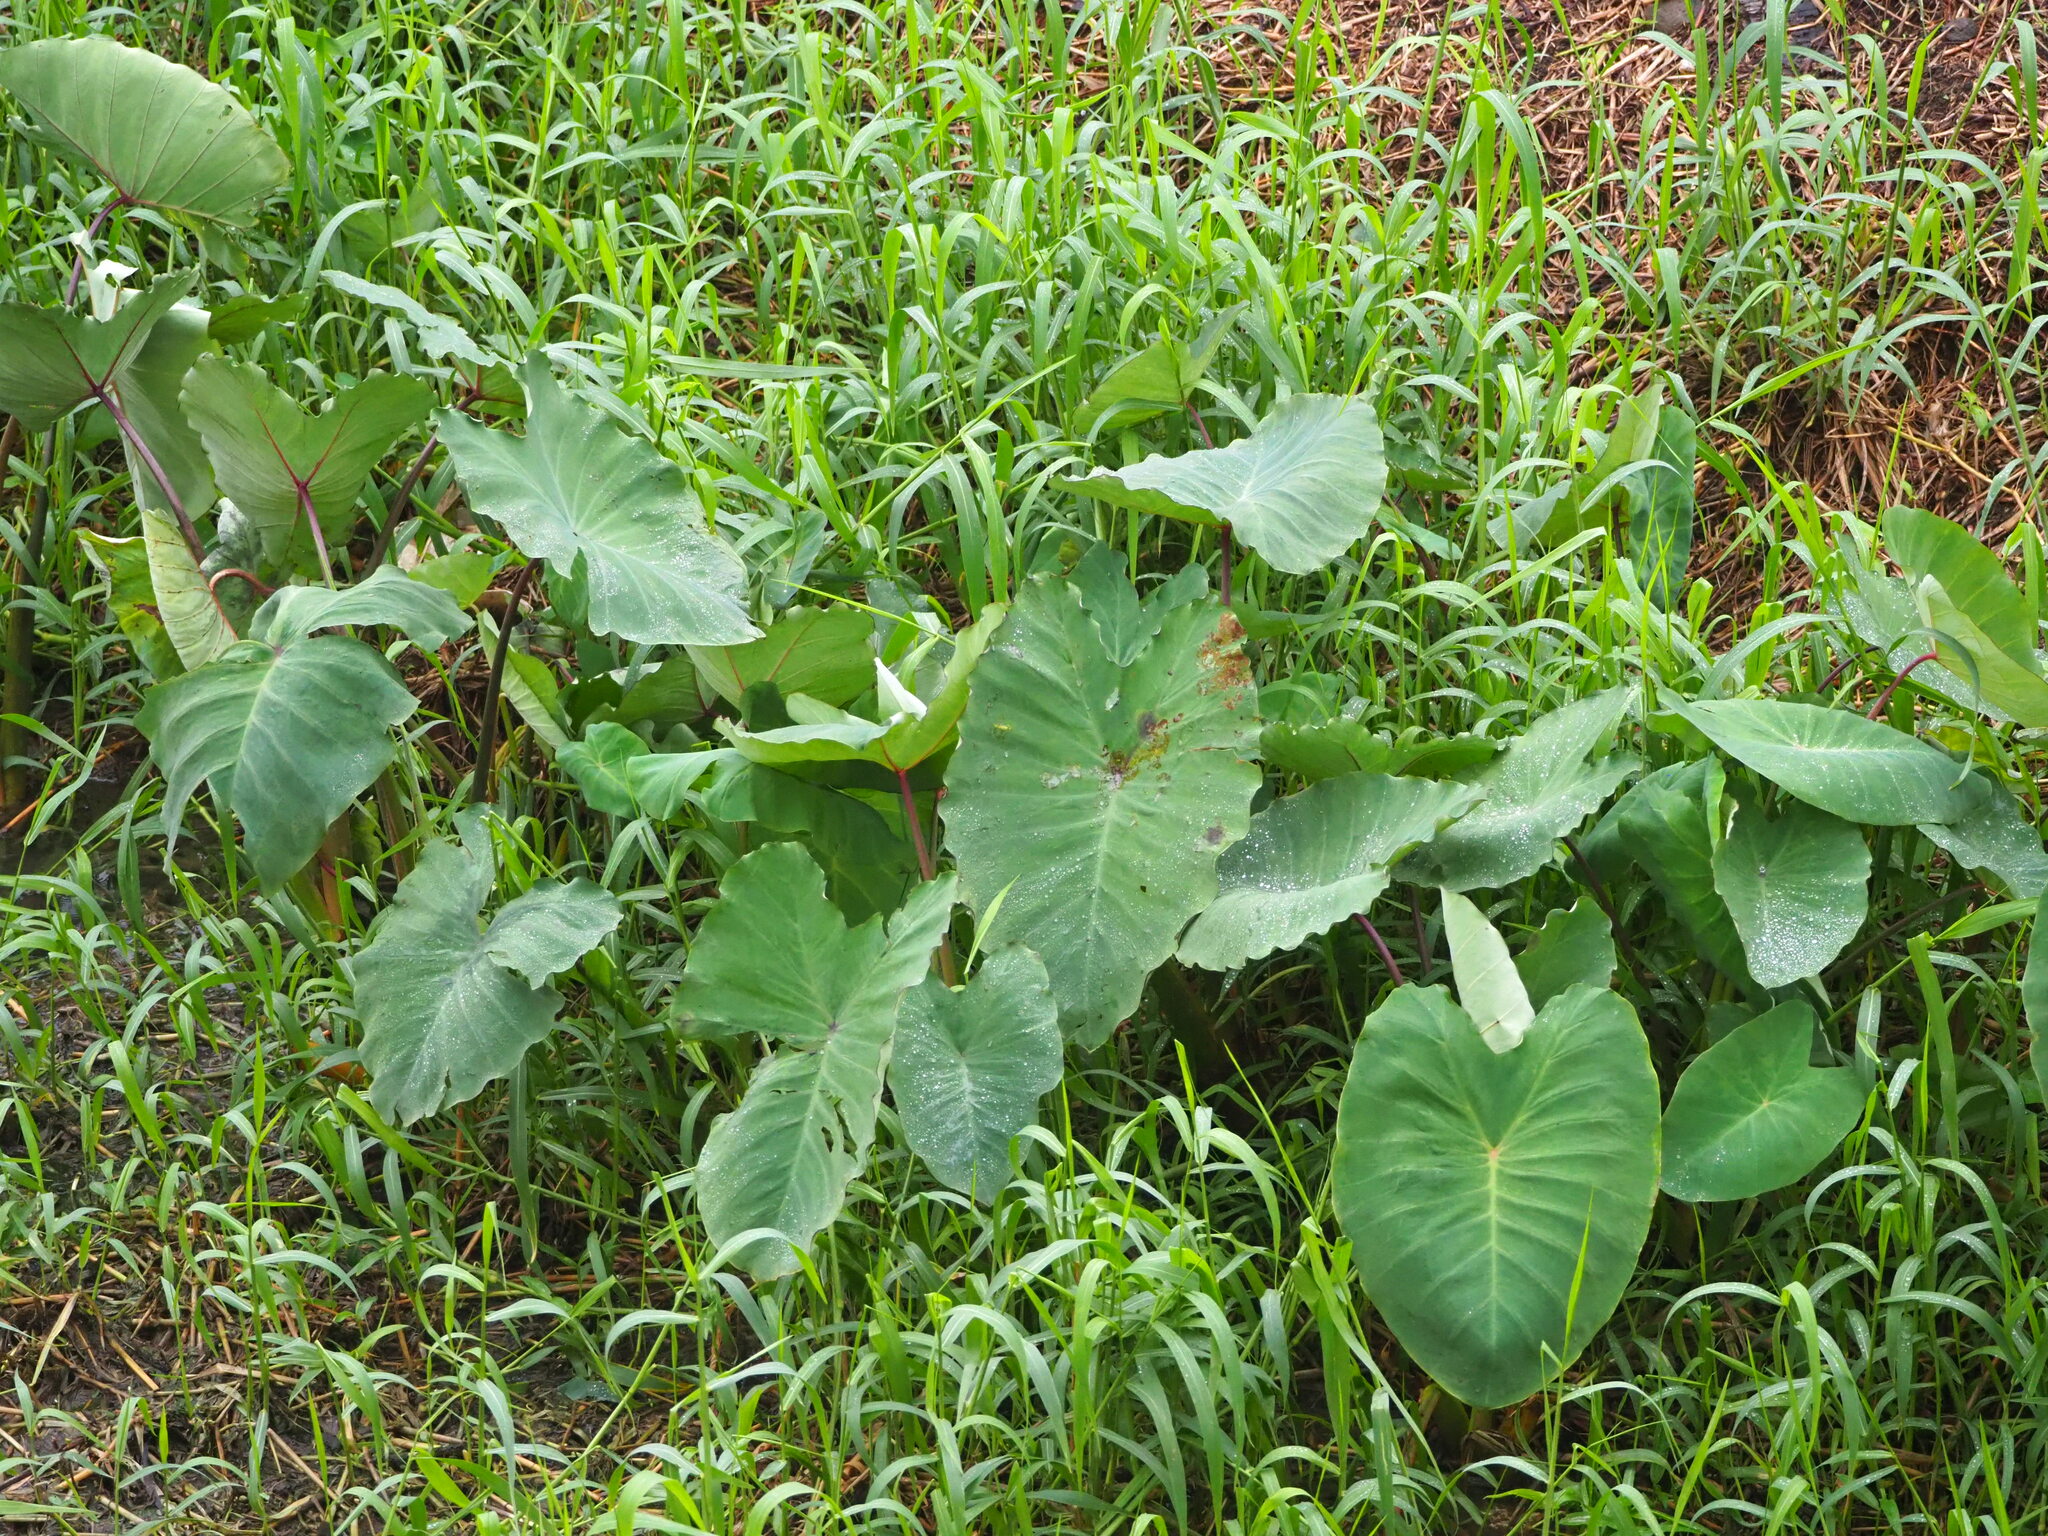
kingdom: Plantae
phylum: Tracheophyta
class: Liliopsida
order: Alismatales
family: Araceae
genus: Colocasia
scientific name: Colocasia esculenta
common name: Taro
